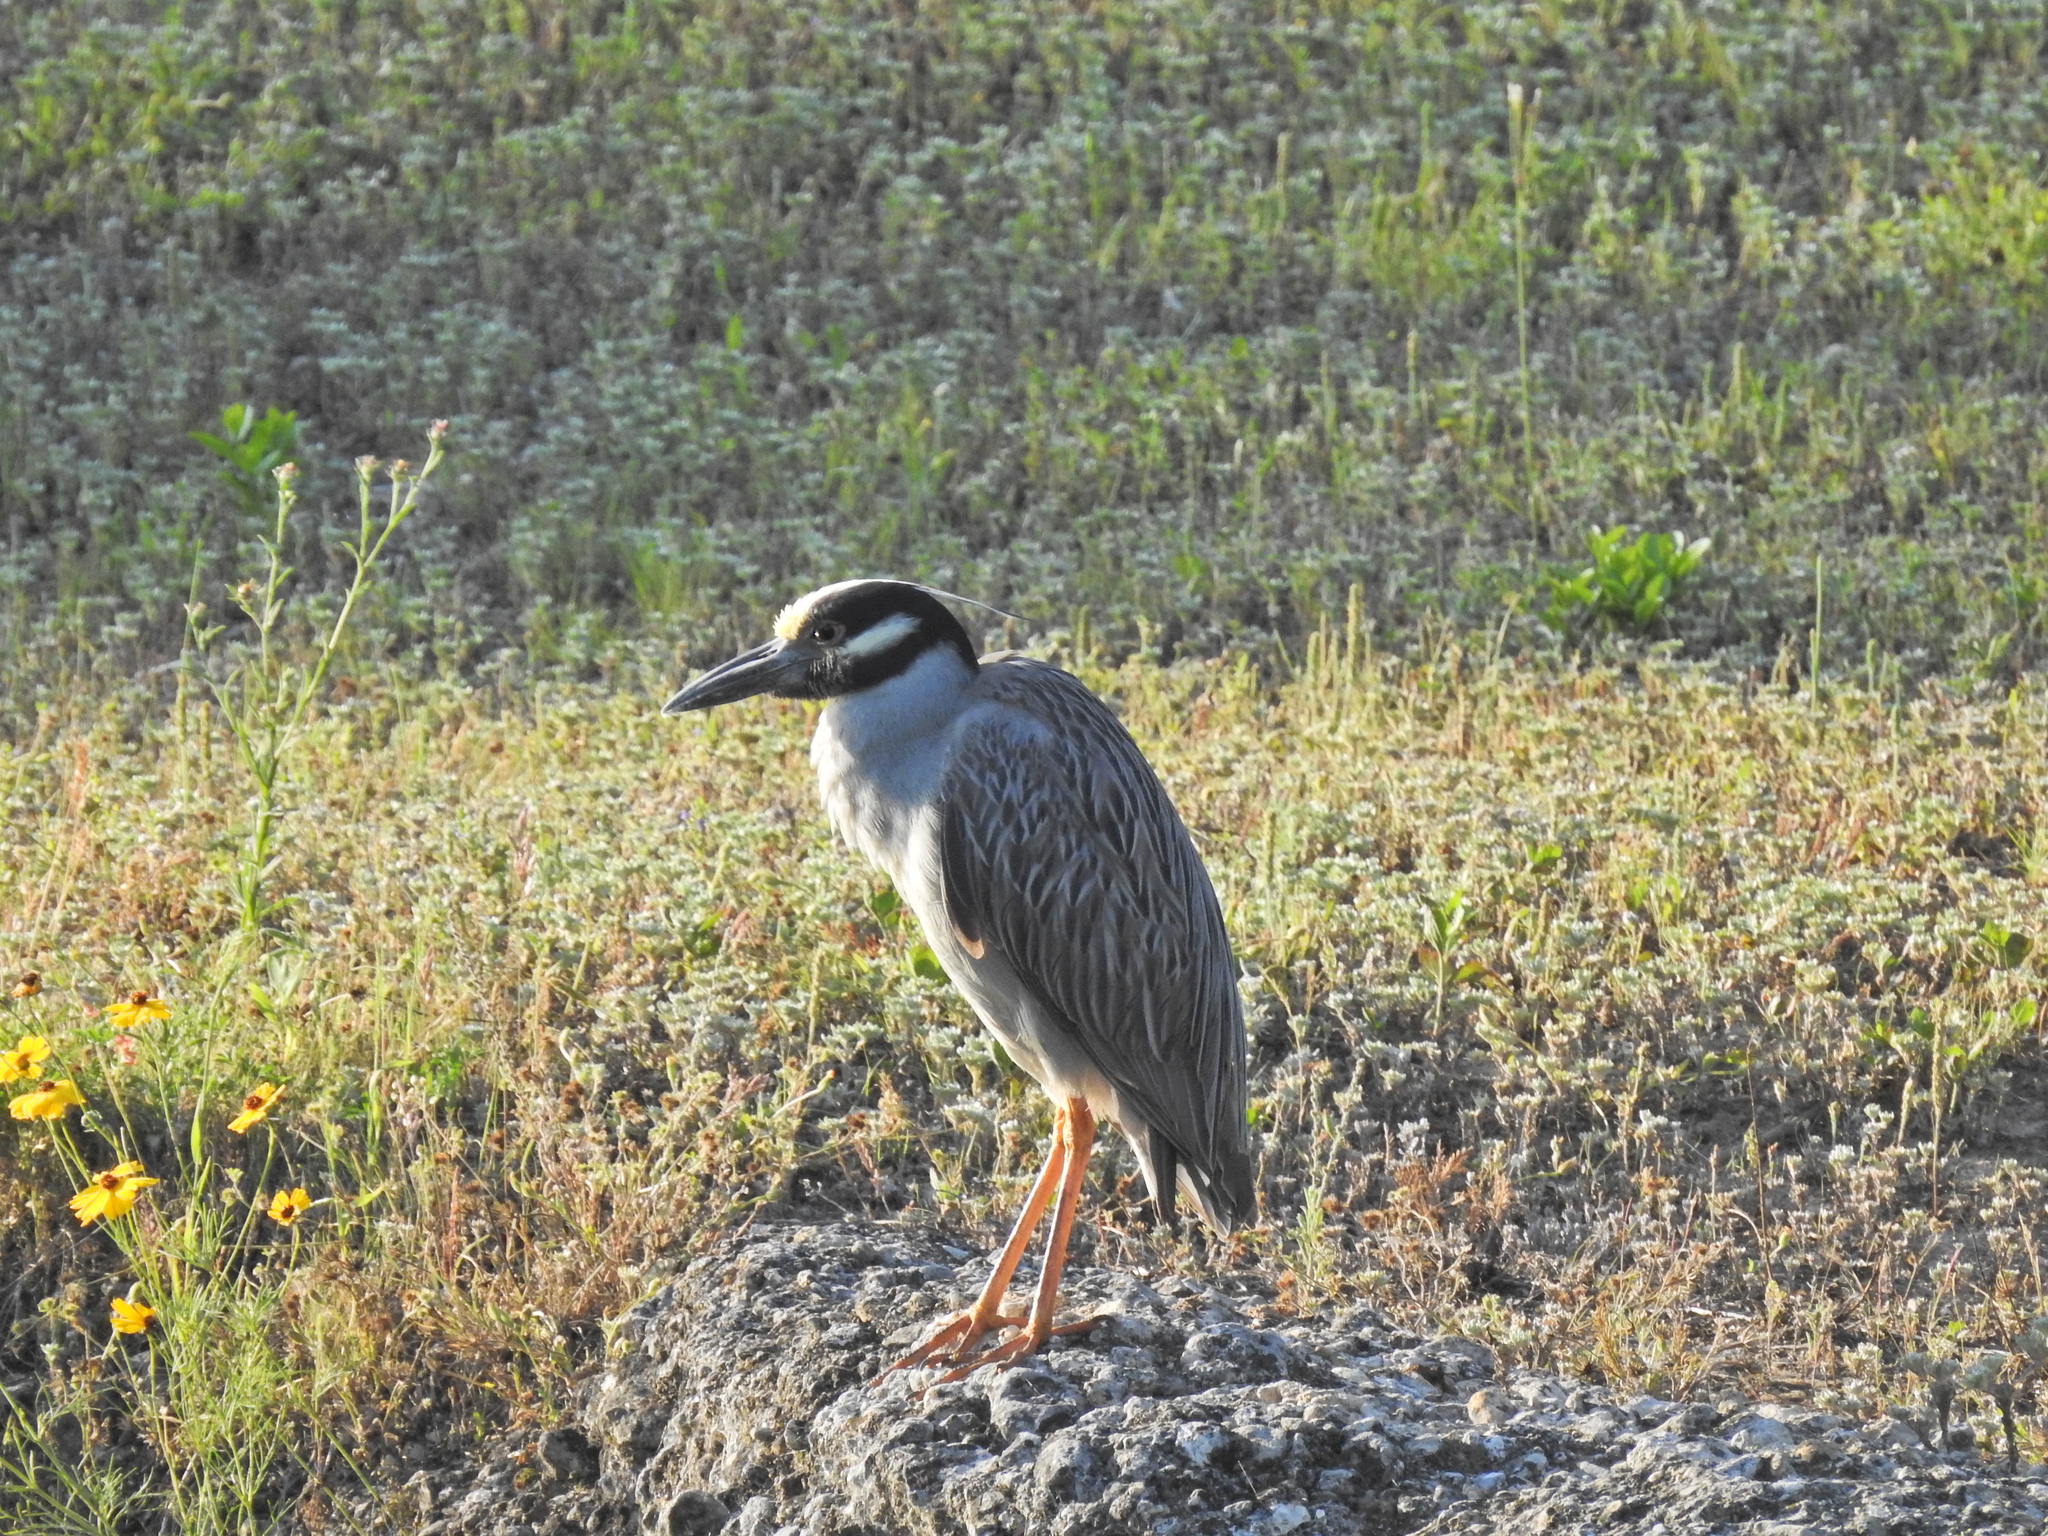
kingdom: Animalia
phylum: Chordata
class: Aves
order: Pelecaniformes
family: Ardeidae
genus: Nyctanassa
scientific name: Nyctanassa violacea
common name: Yellow-crowned night heron
